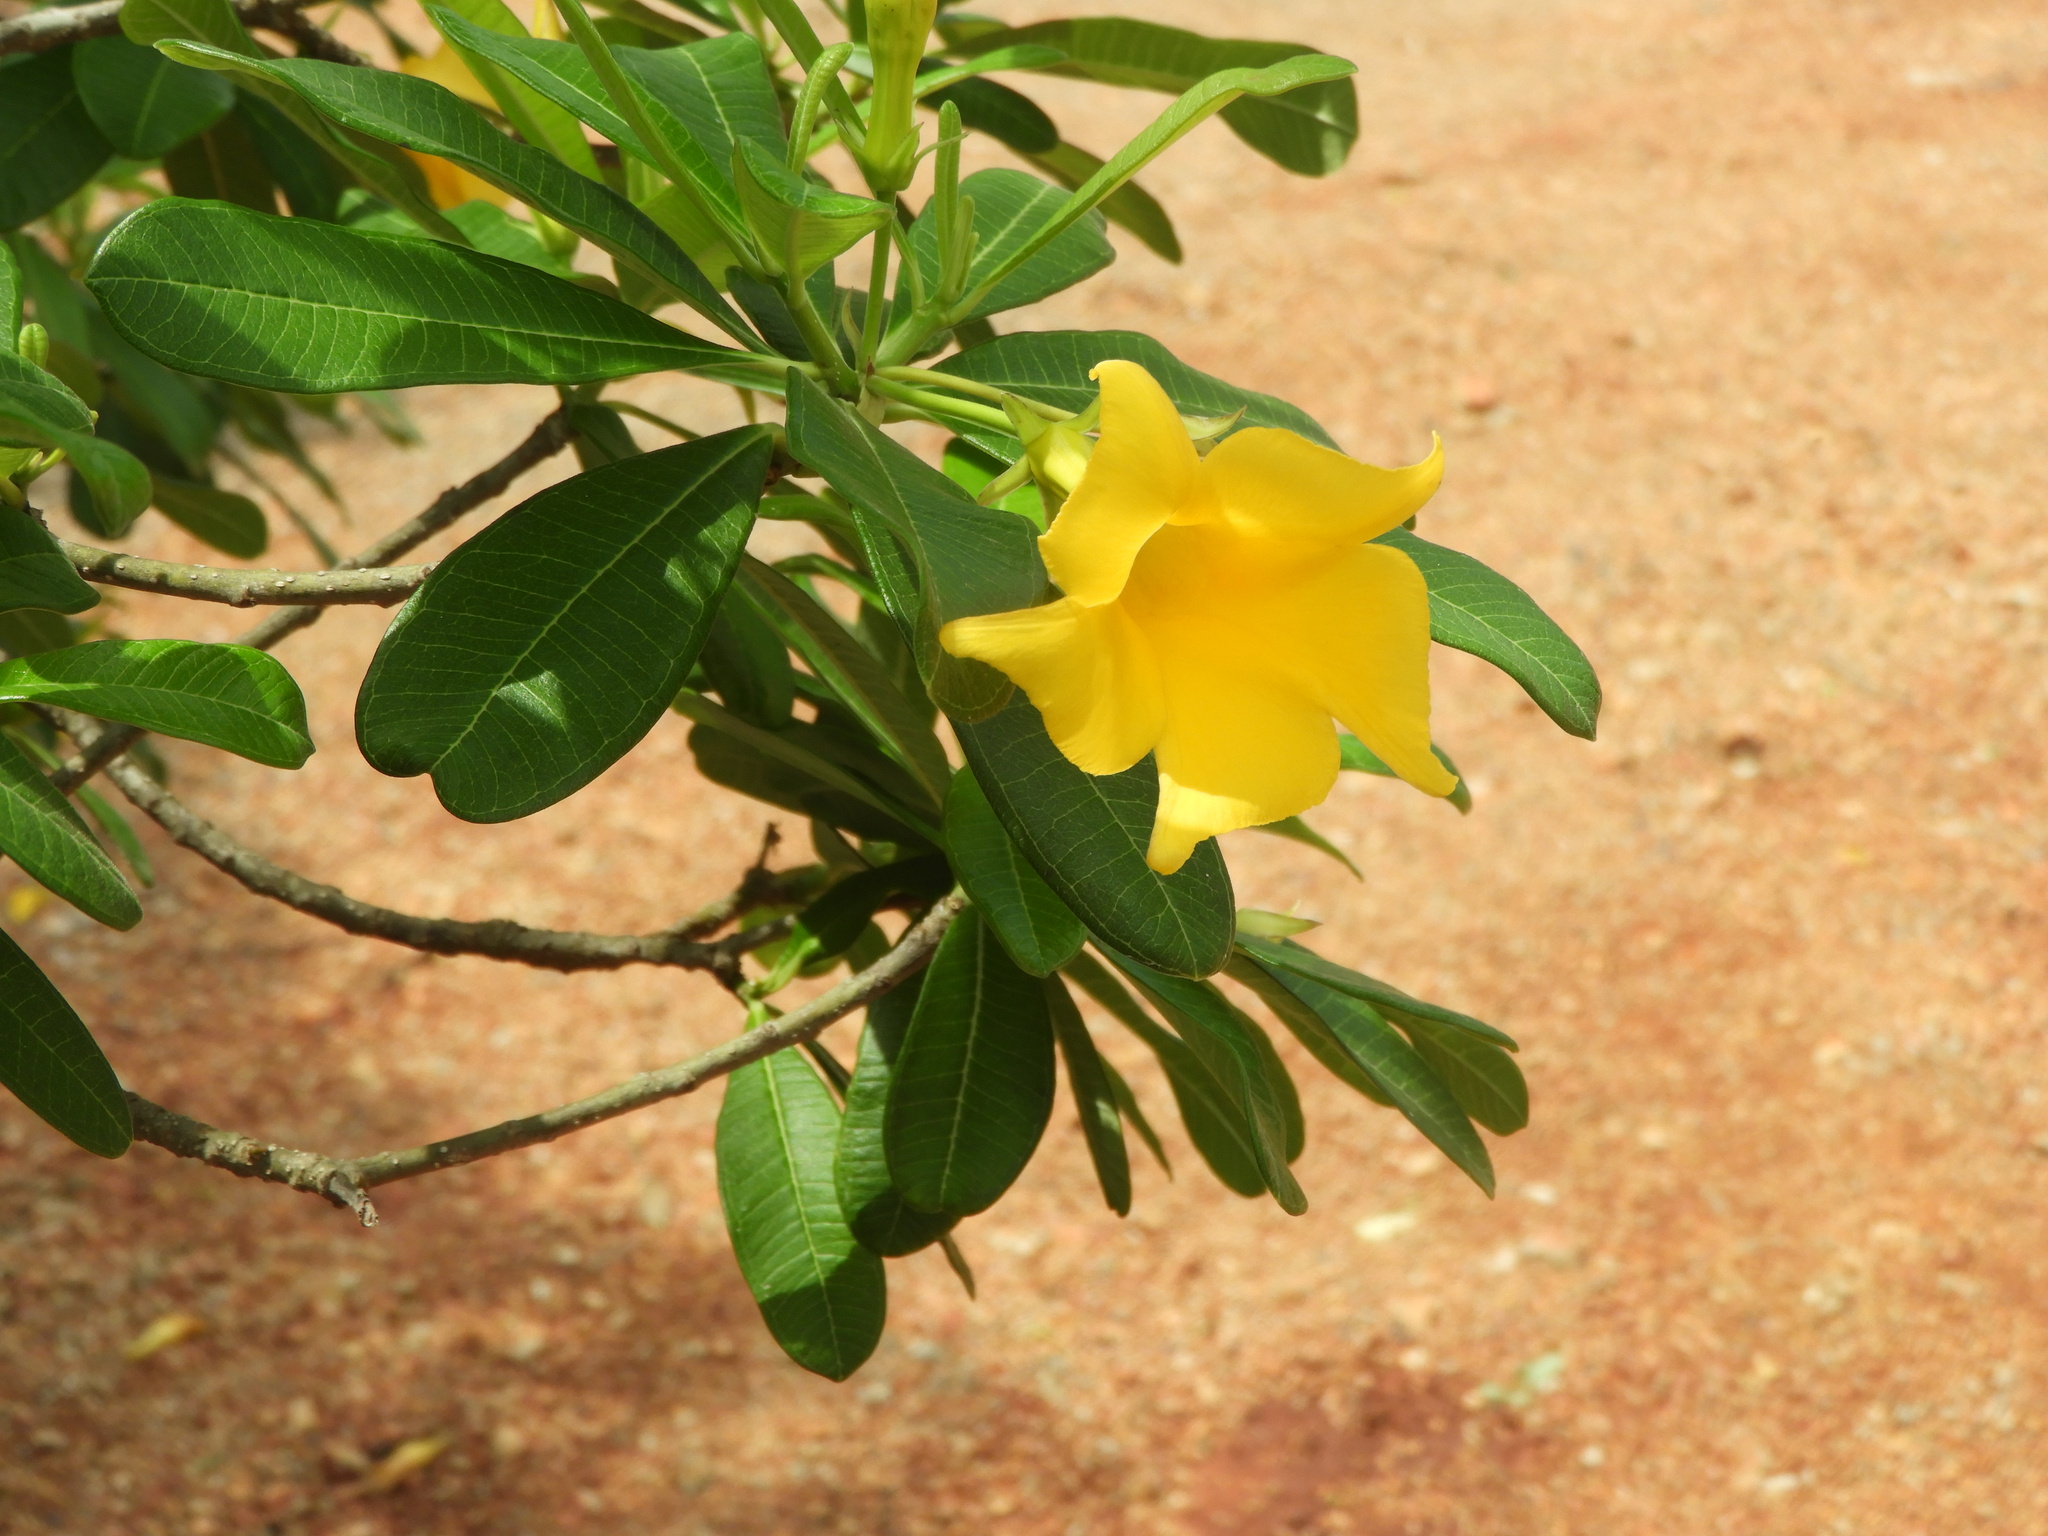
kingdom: Plantae
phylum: Tracheophyta
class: Magnoliopsida
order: Gentianales
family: Apocynaceae
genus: Cascabela
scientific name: Cascabela ovata
